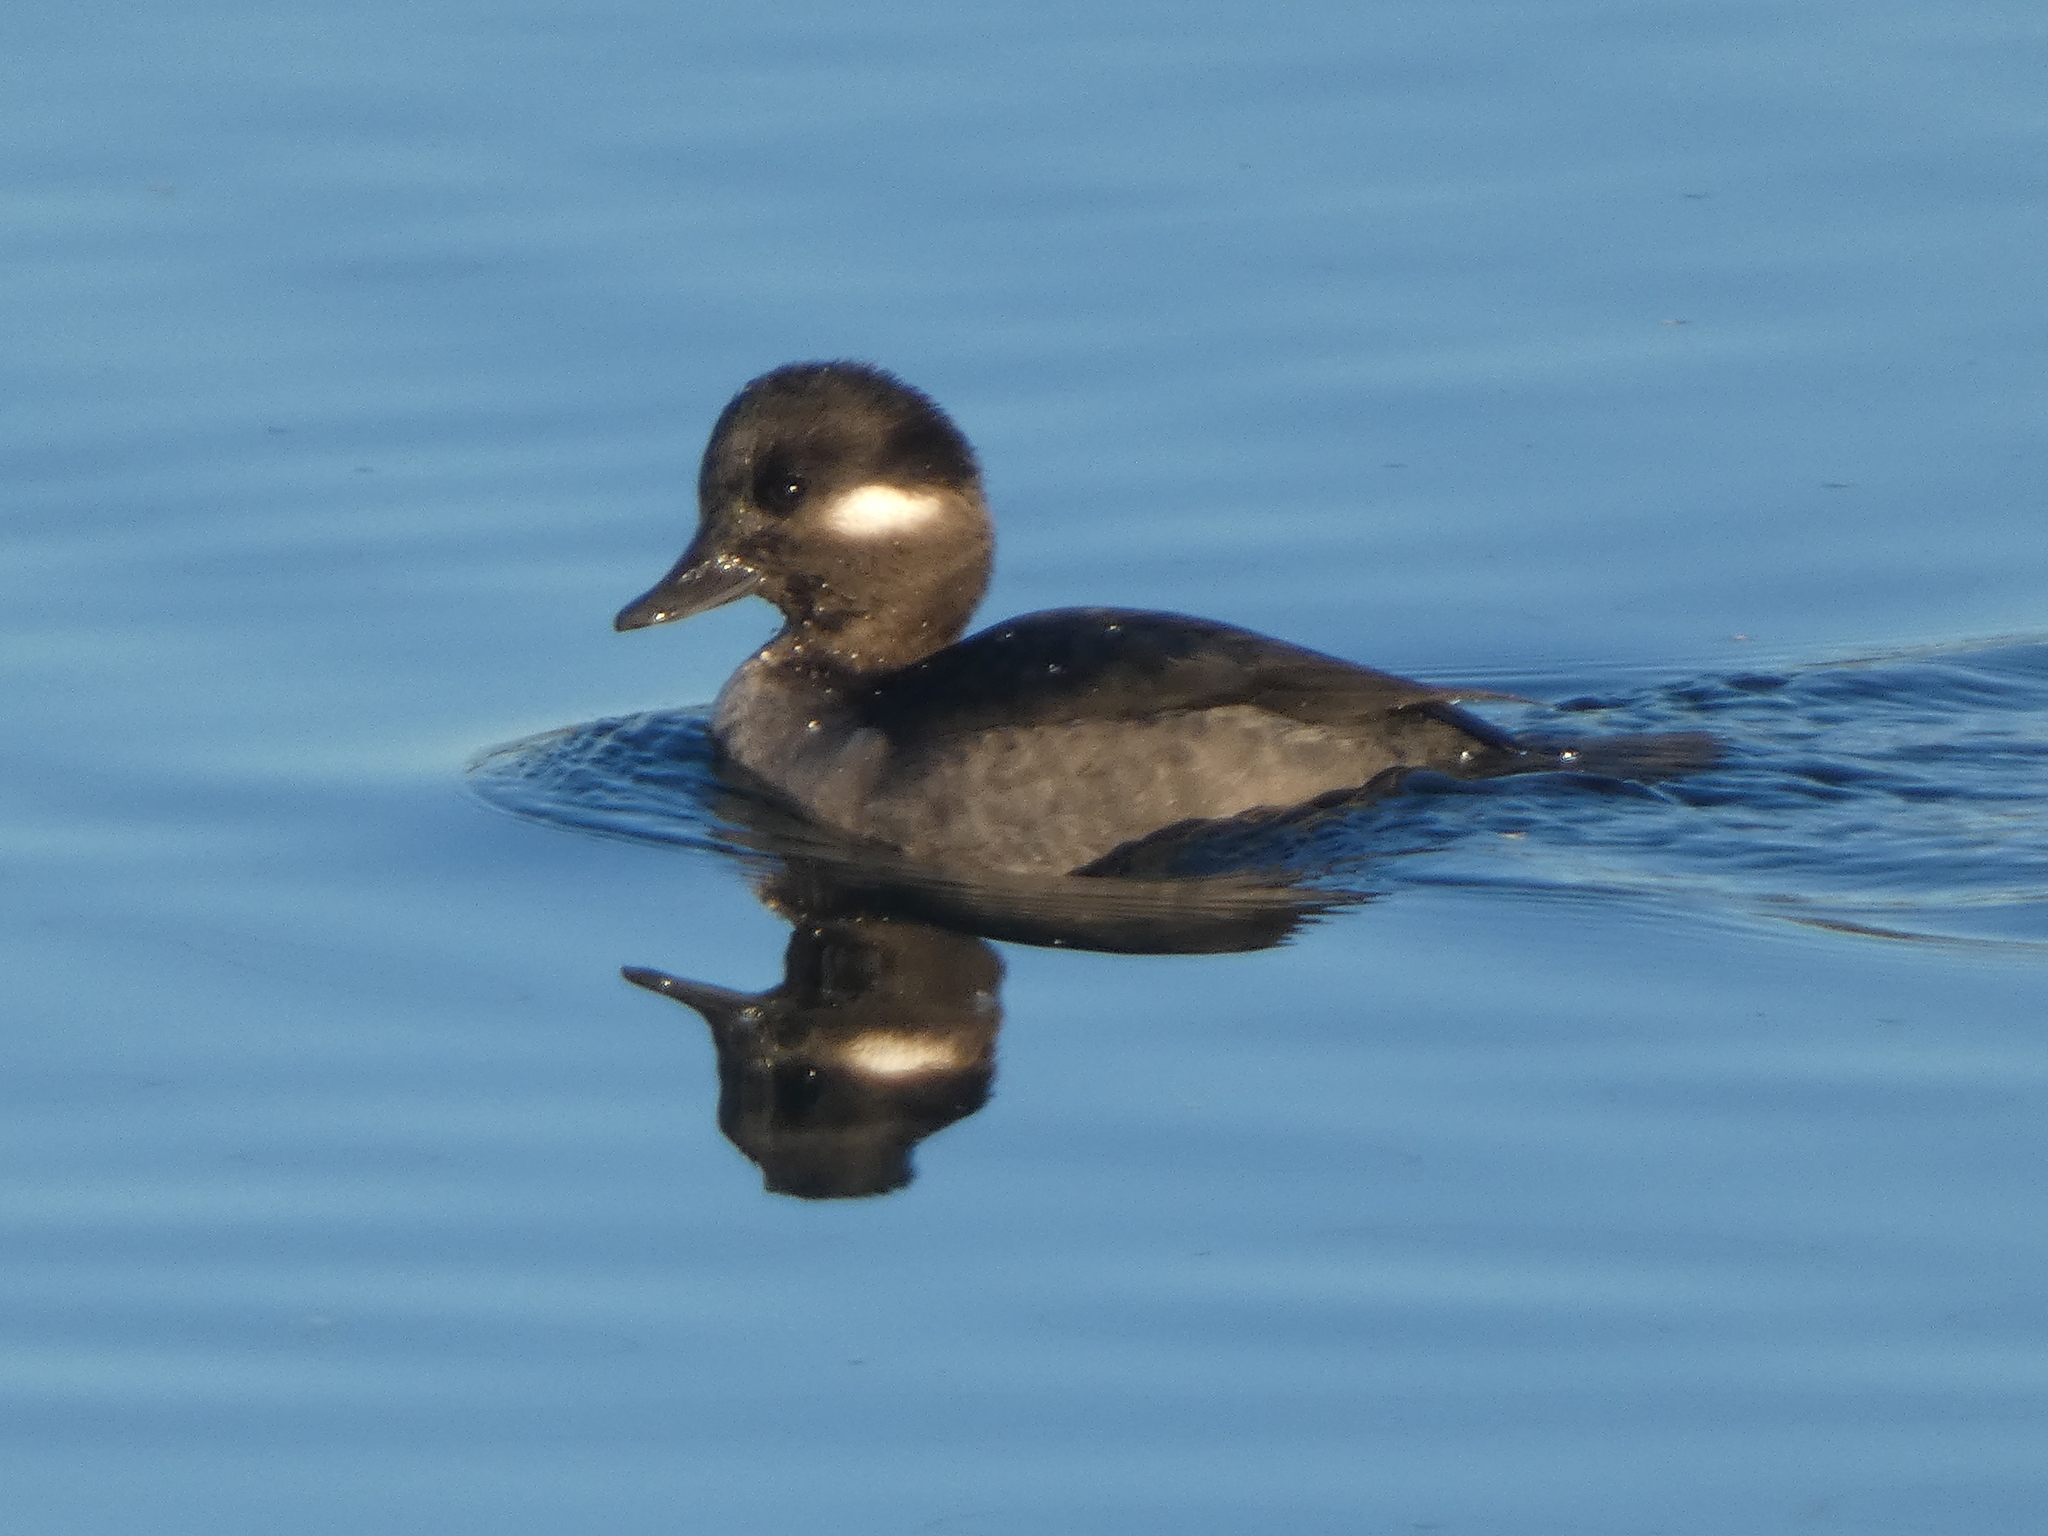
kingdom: Animalia
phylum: Chordata
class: Aves
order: Anseriformes
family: Anatidae
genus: Bucephala
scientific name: Bucephala albeola
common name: Bufflehead
